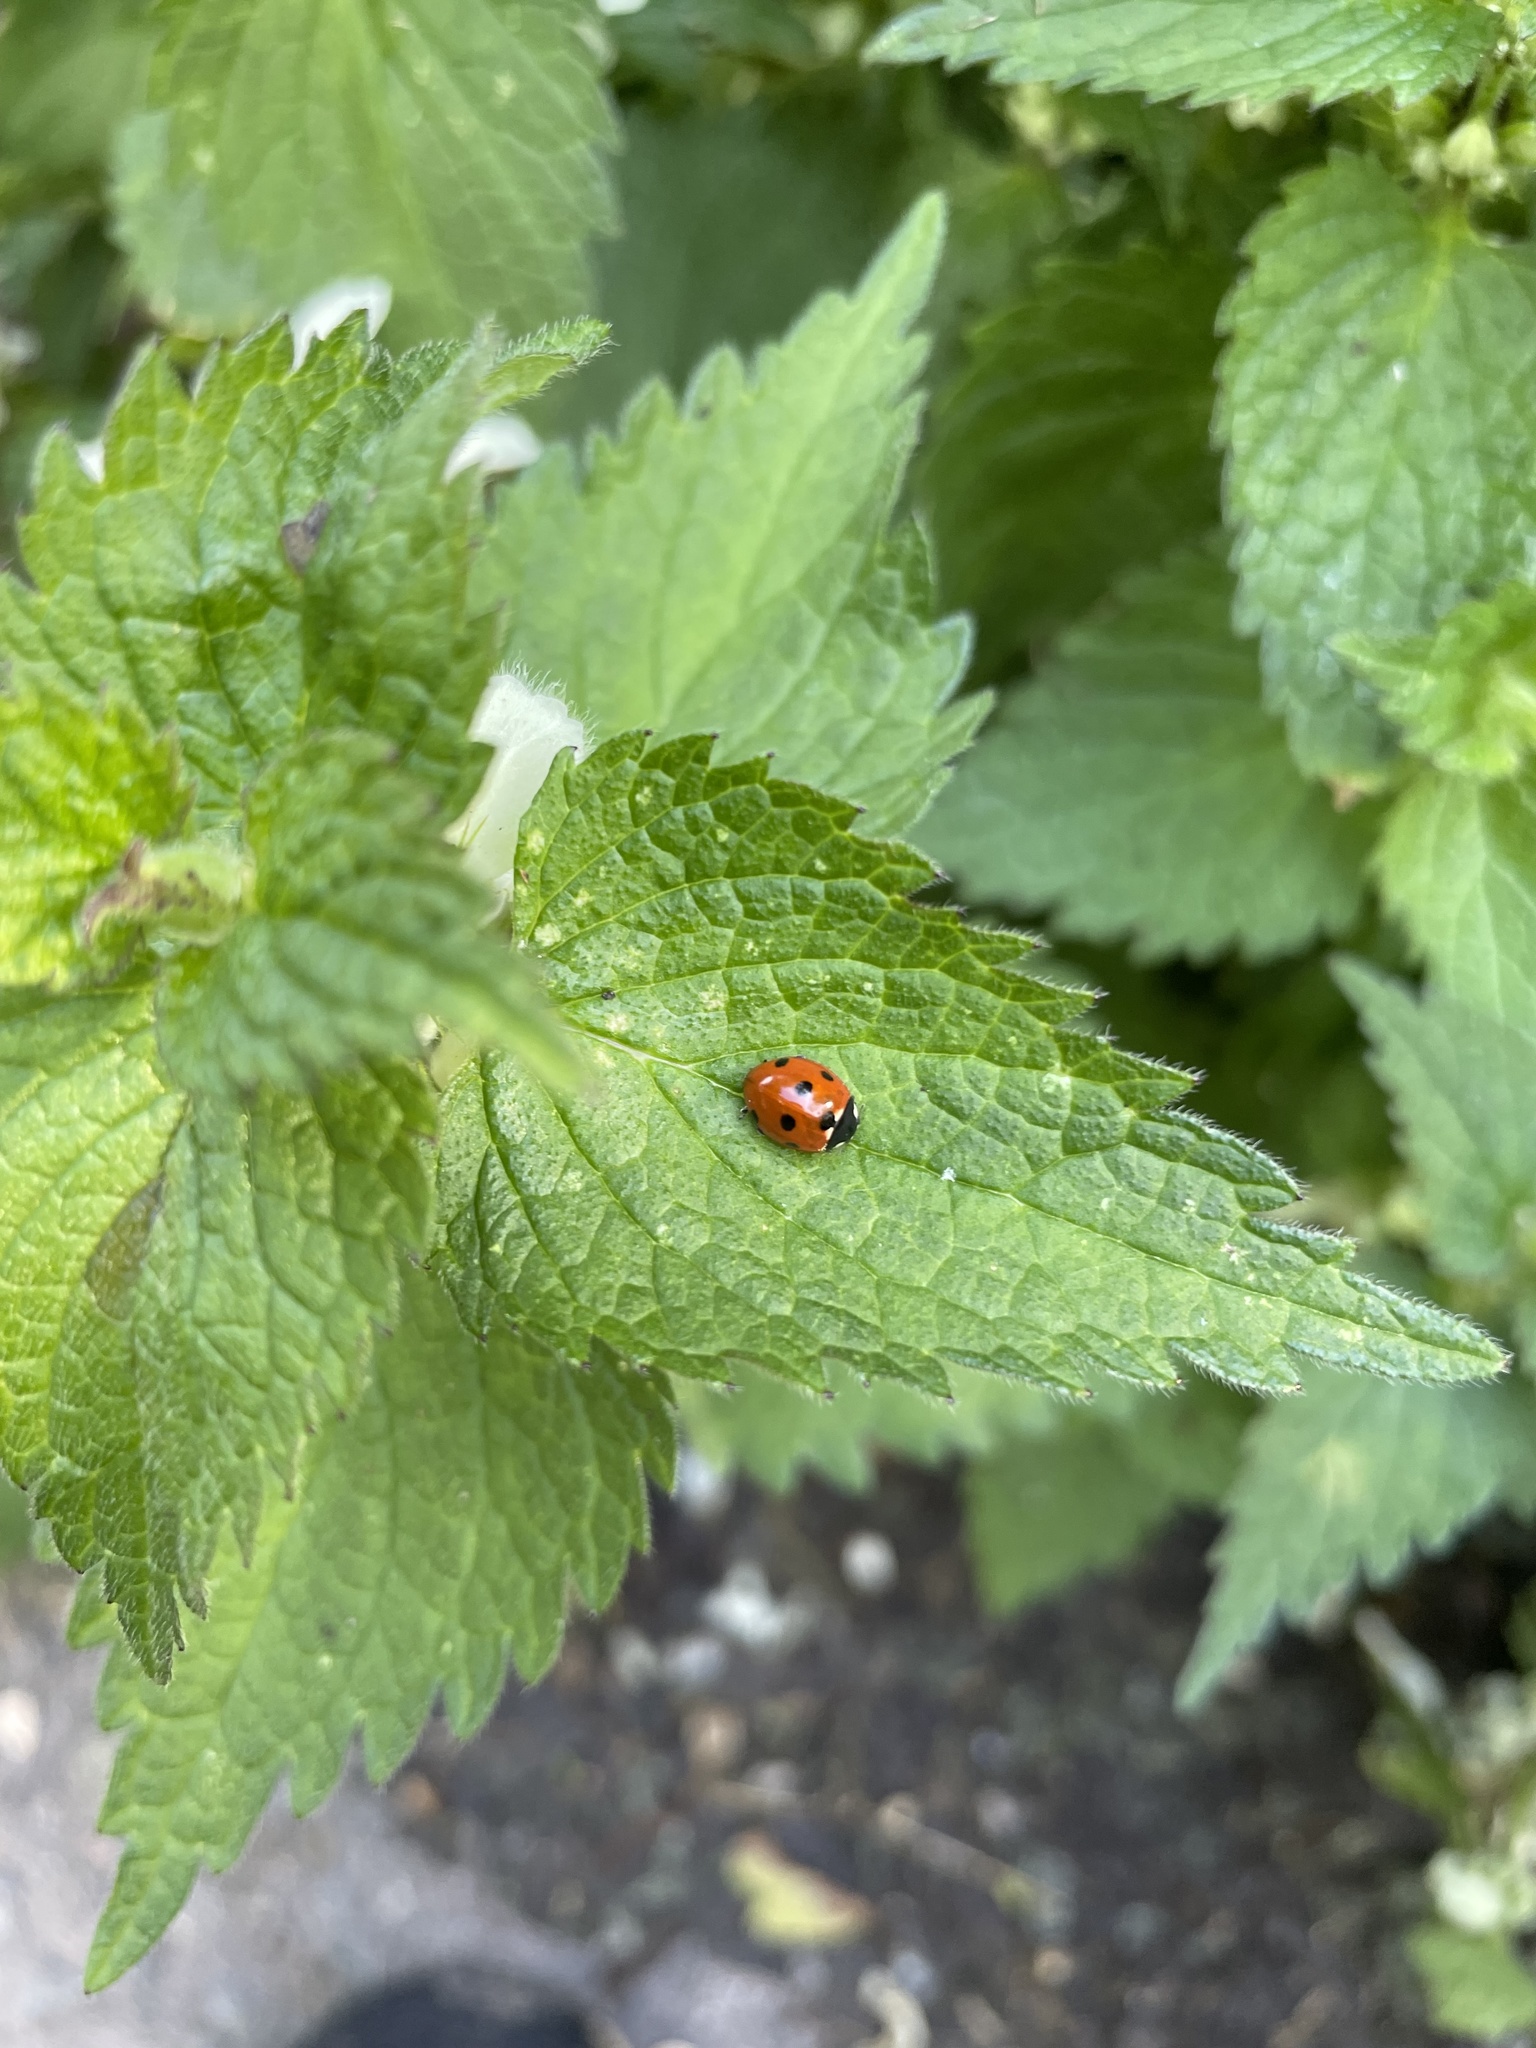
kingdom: Animalia
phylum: Arthropoda
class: Insecta
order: Coleoptera
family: Coccinellidae
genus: Coccinella
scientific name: Coccinella septempunctata
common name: Sevenspotted lady beetle
